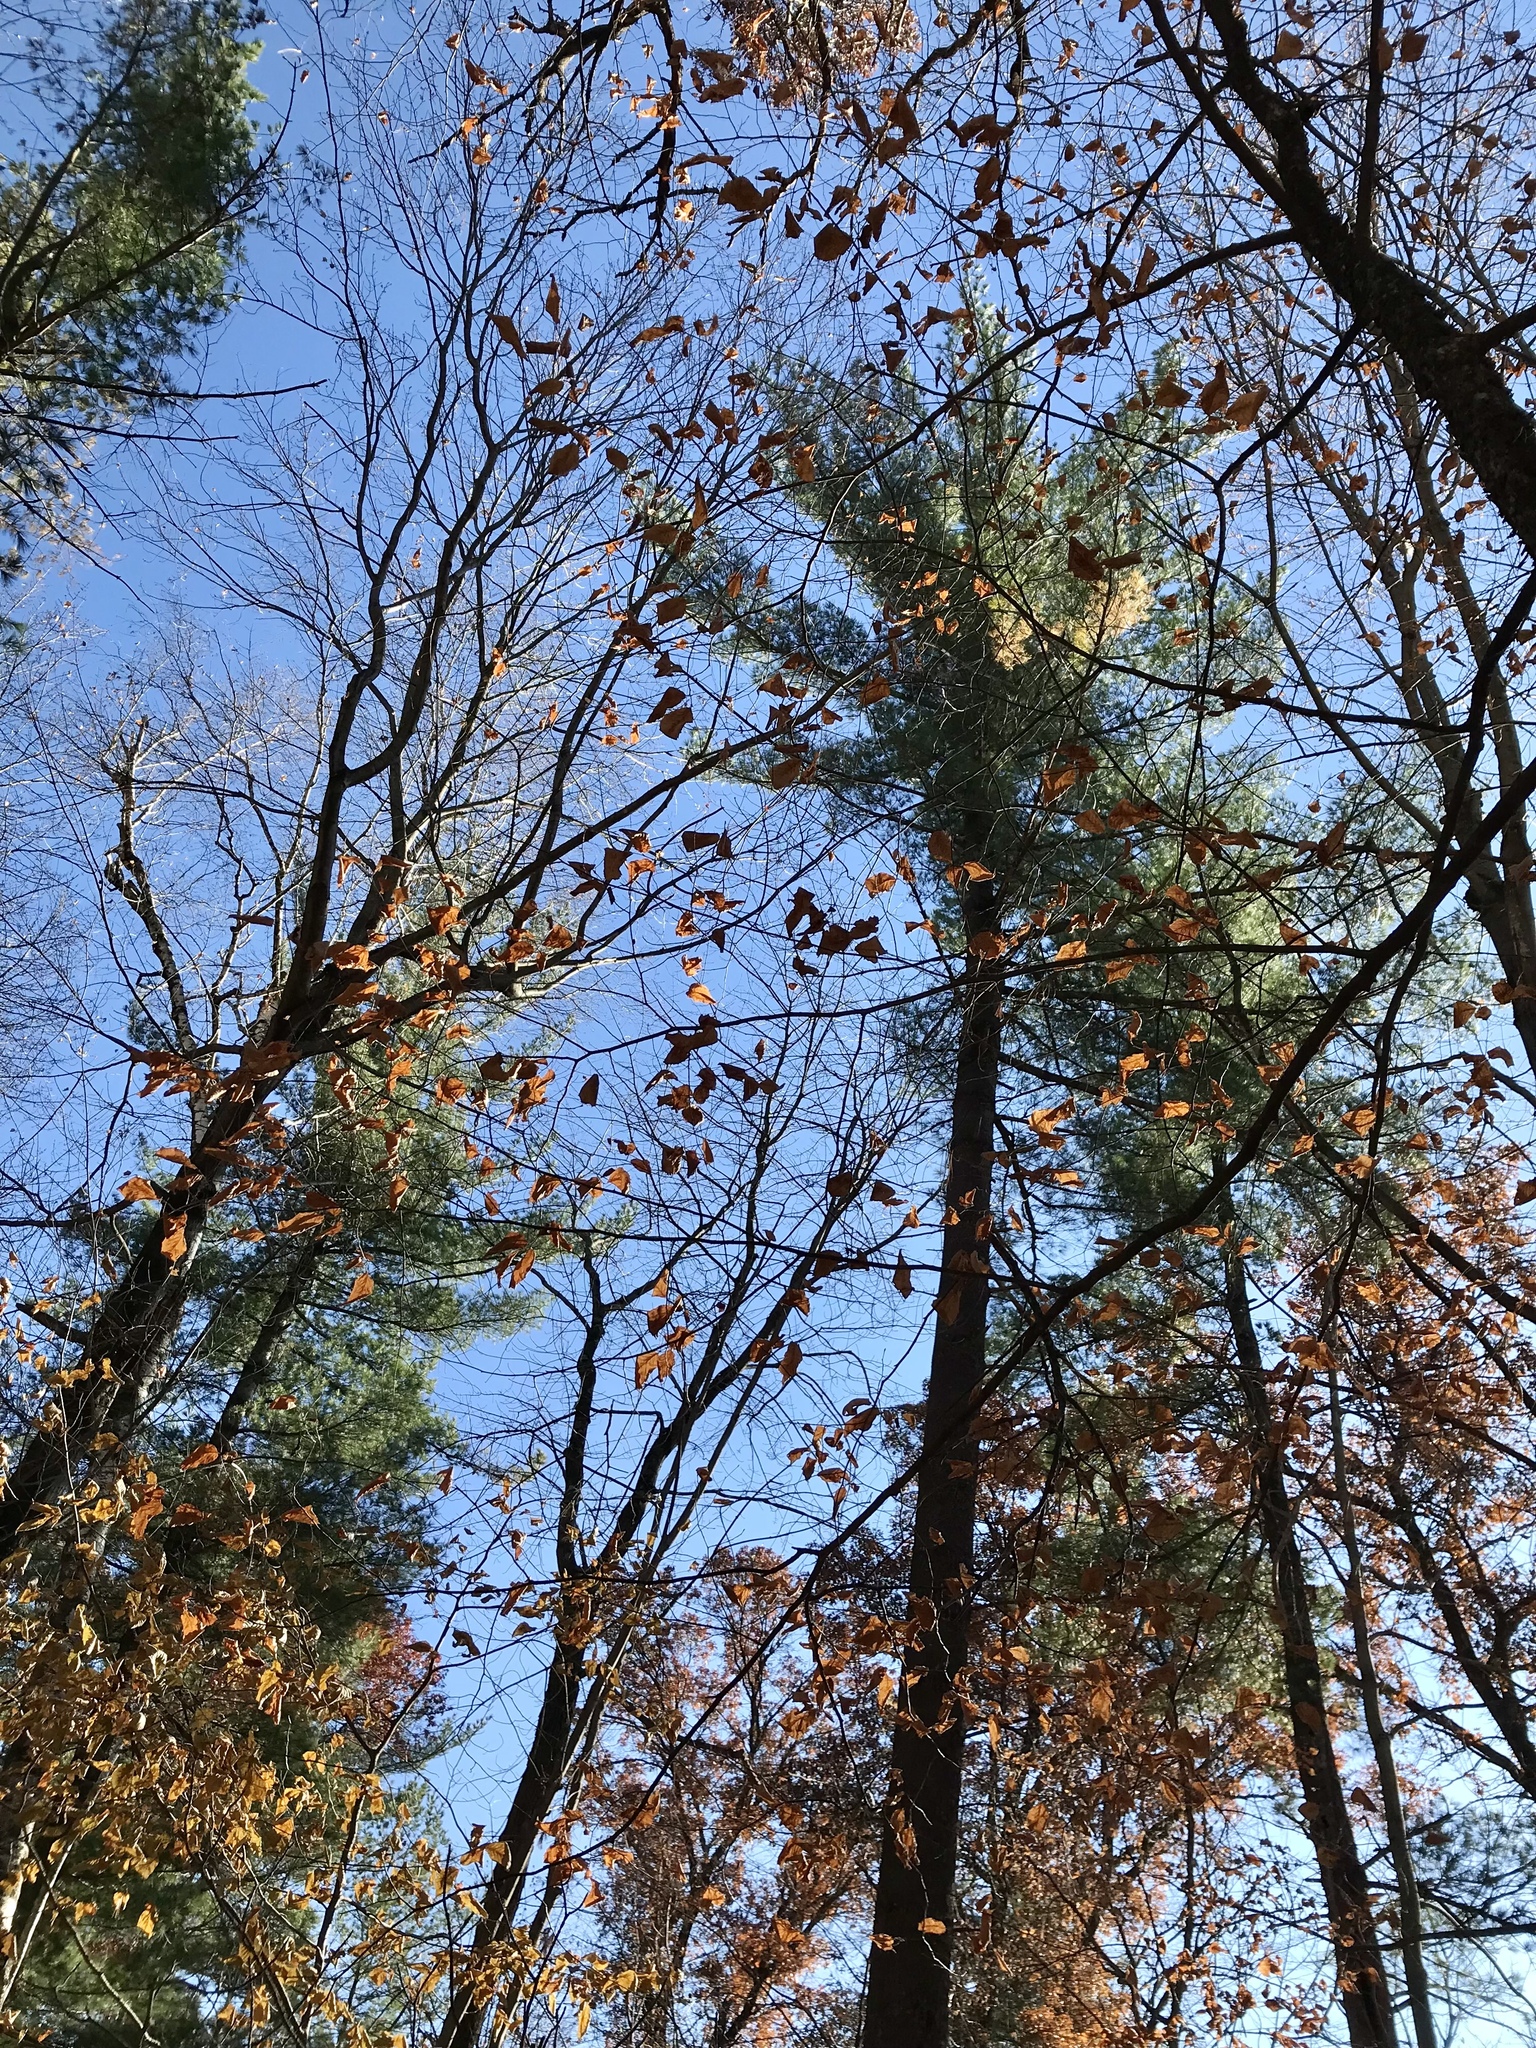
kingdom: Plantae
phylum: Tracheophyta
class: Magnoliopsida
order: Fagales
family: Betulaceae
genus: Ostrya
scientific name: Ostrya virginiana
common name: Ironwood
